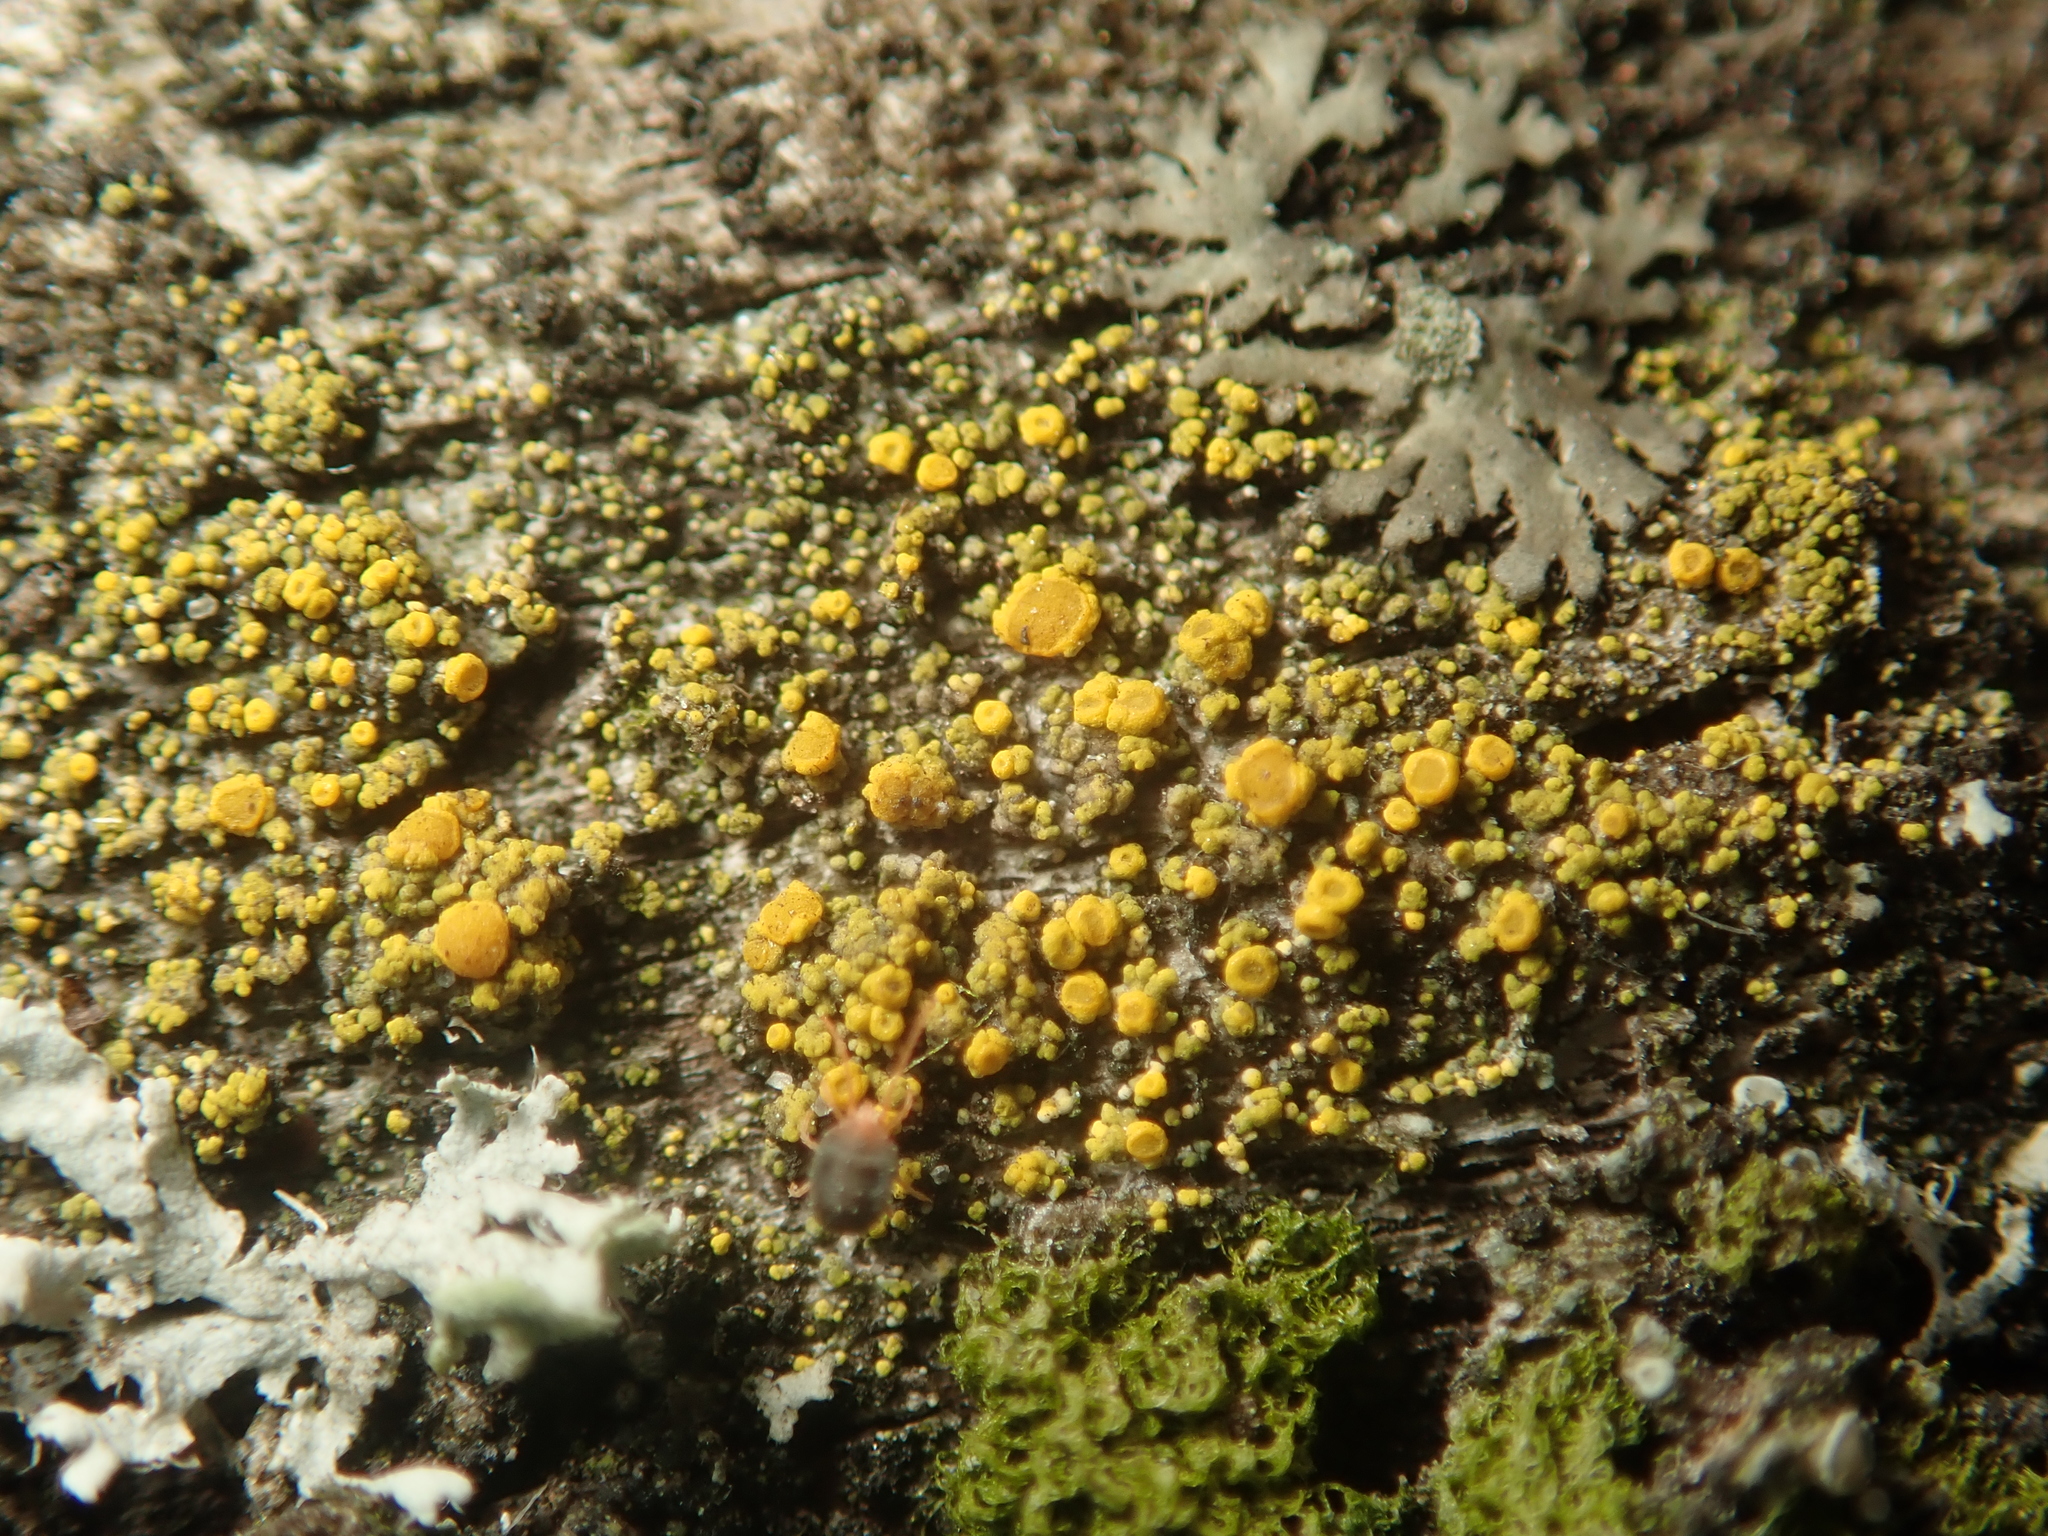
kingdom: Fungi
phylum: Ascomycota
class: Candelariomycetes
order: Candelariales
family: Candelariaceae
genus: Candelariella
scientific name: Candelariella vitellina
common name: Common goldspeck
